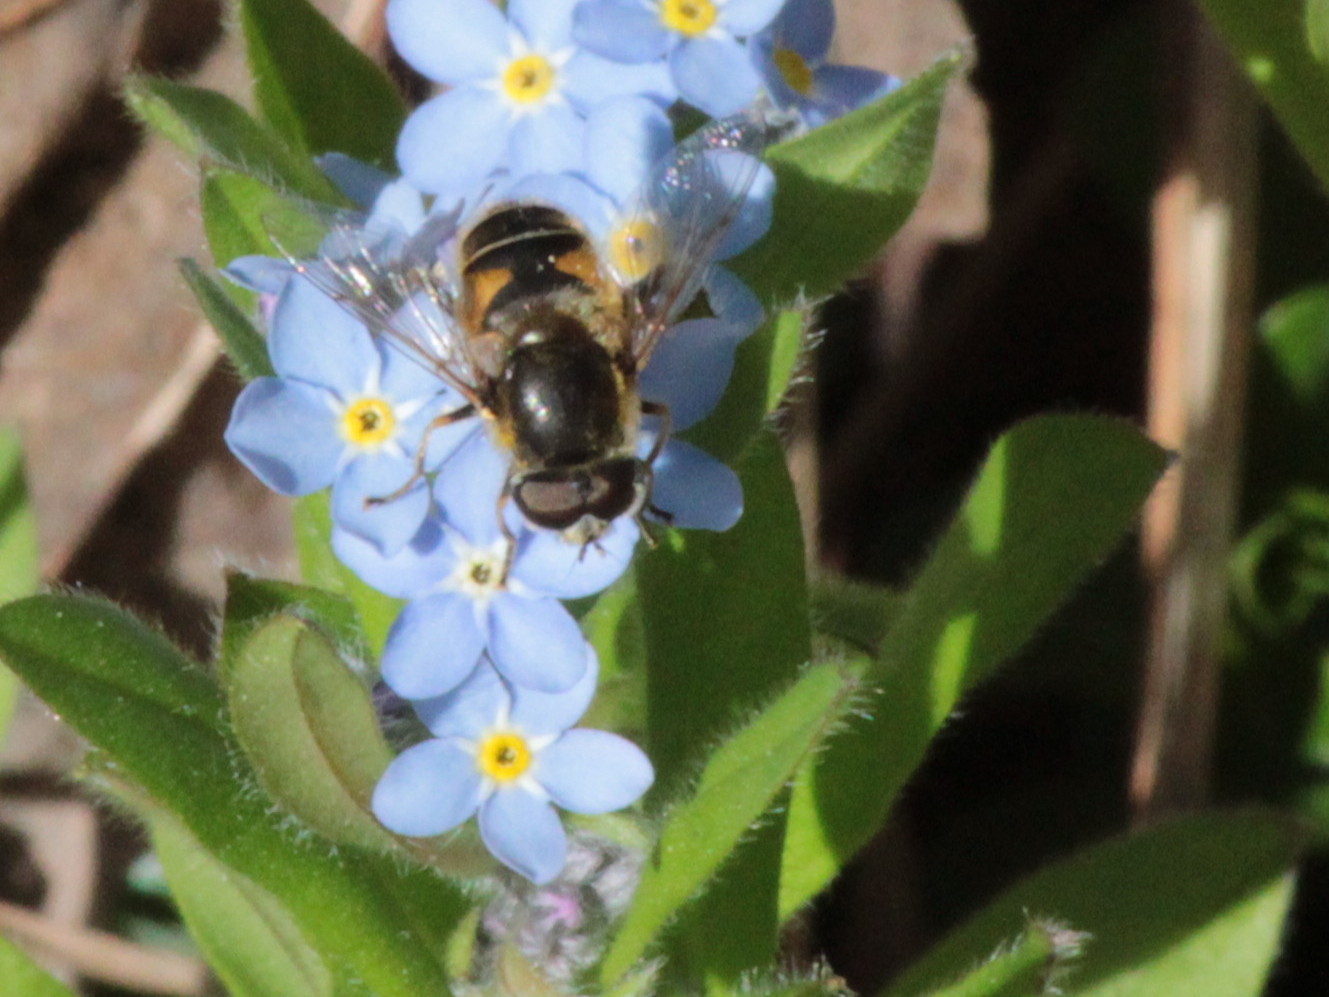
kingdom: Animalia
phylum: Arthropoda
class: Insecta
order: Diptera
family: Syrphidae
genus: Eristalis
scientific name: Eristalis nemorum
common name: Orange-spined drone fly
